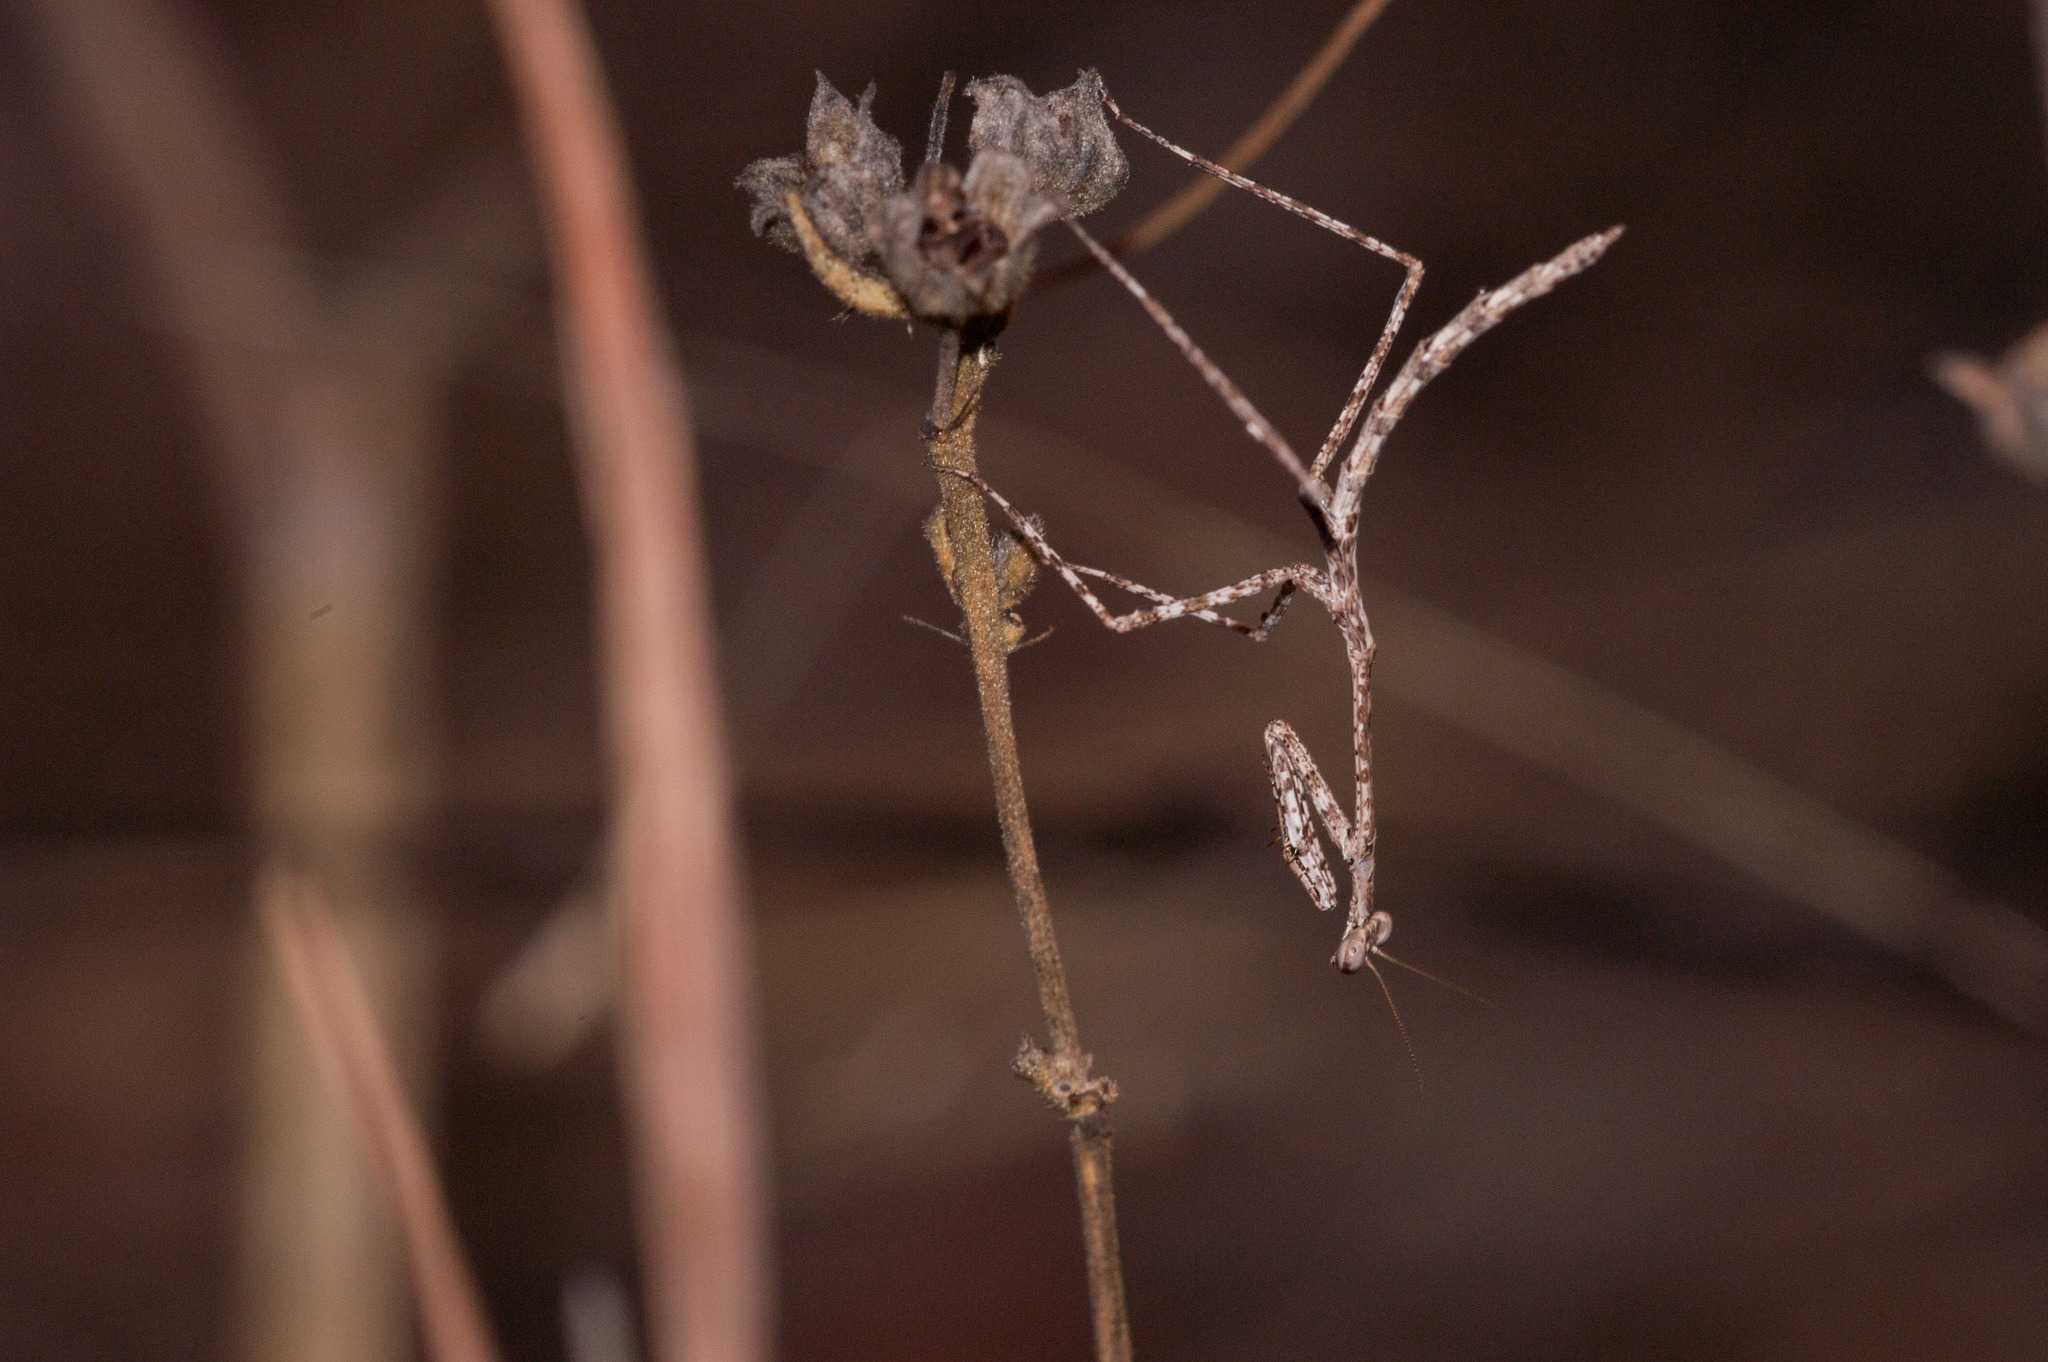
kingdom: Animalia
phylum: Arthropoda
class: Insecta
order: Mantodea
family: Mantidae
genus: Austrovates
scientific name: Austrovates variegata
